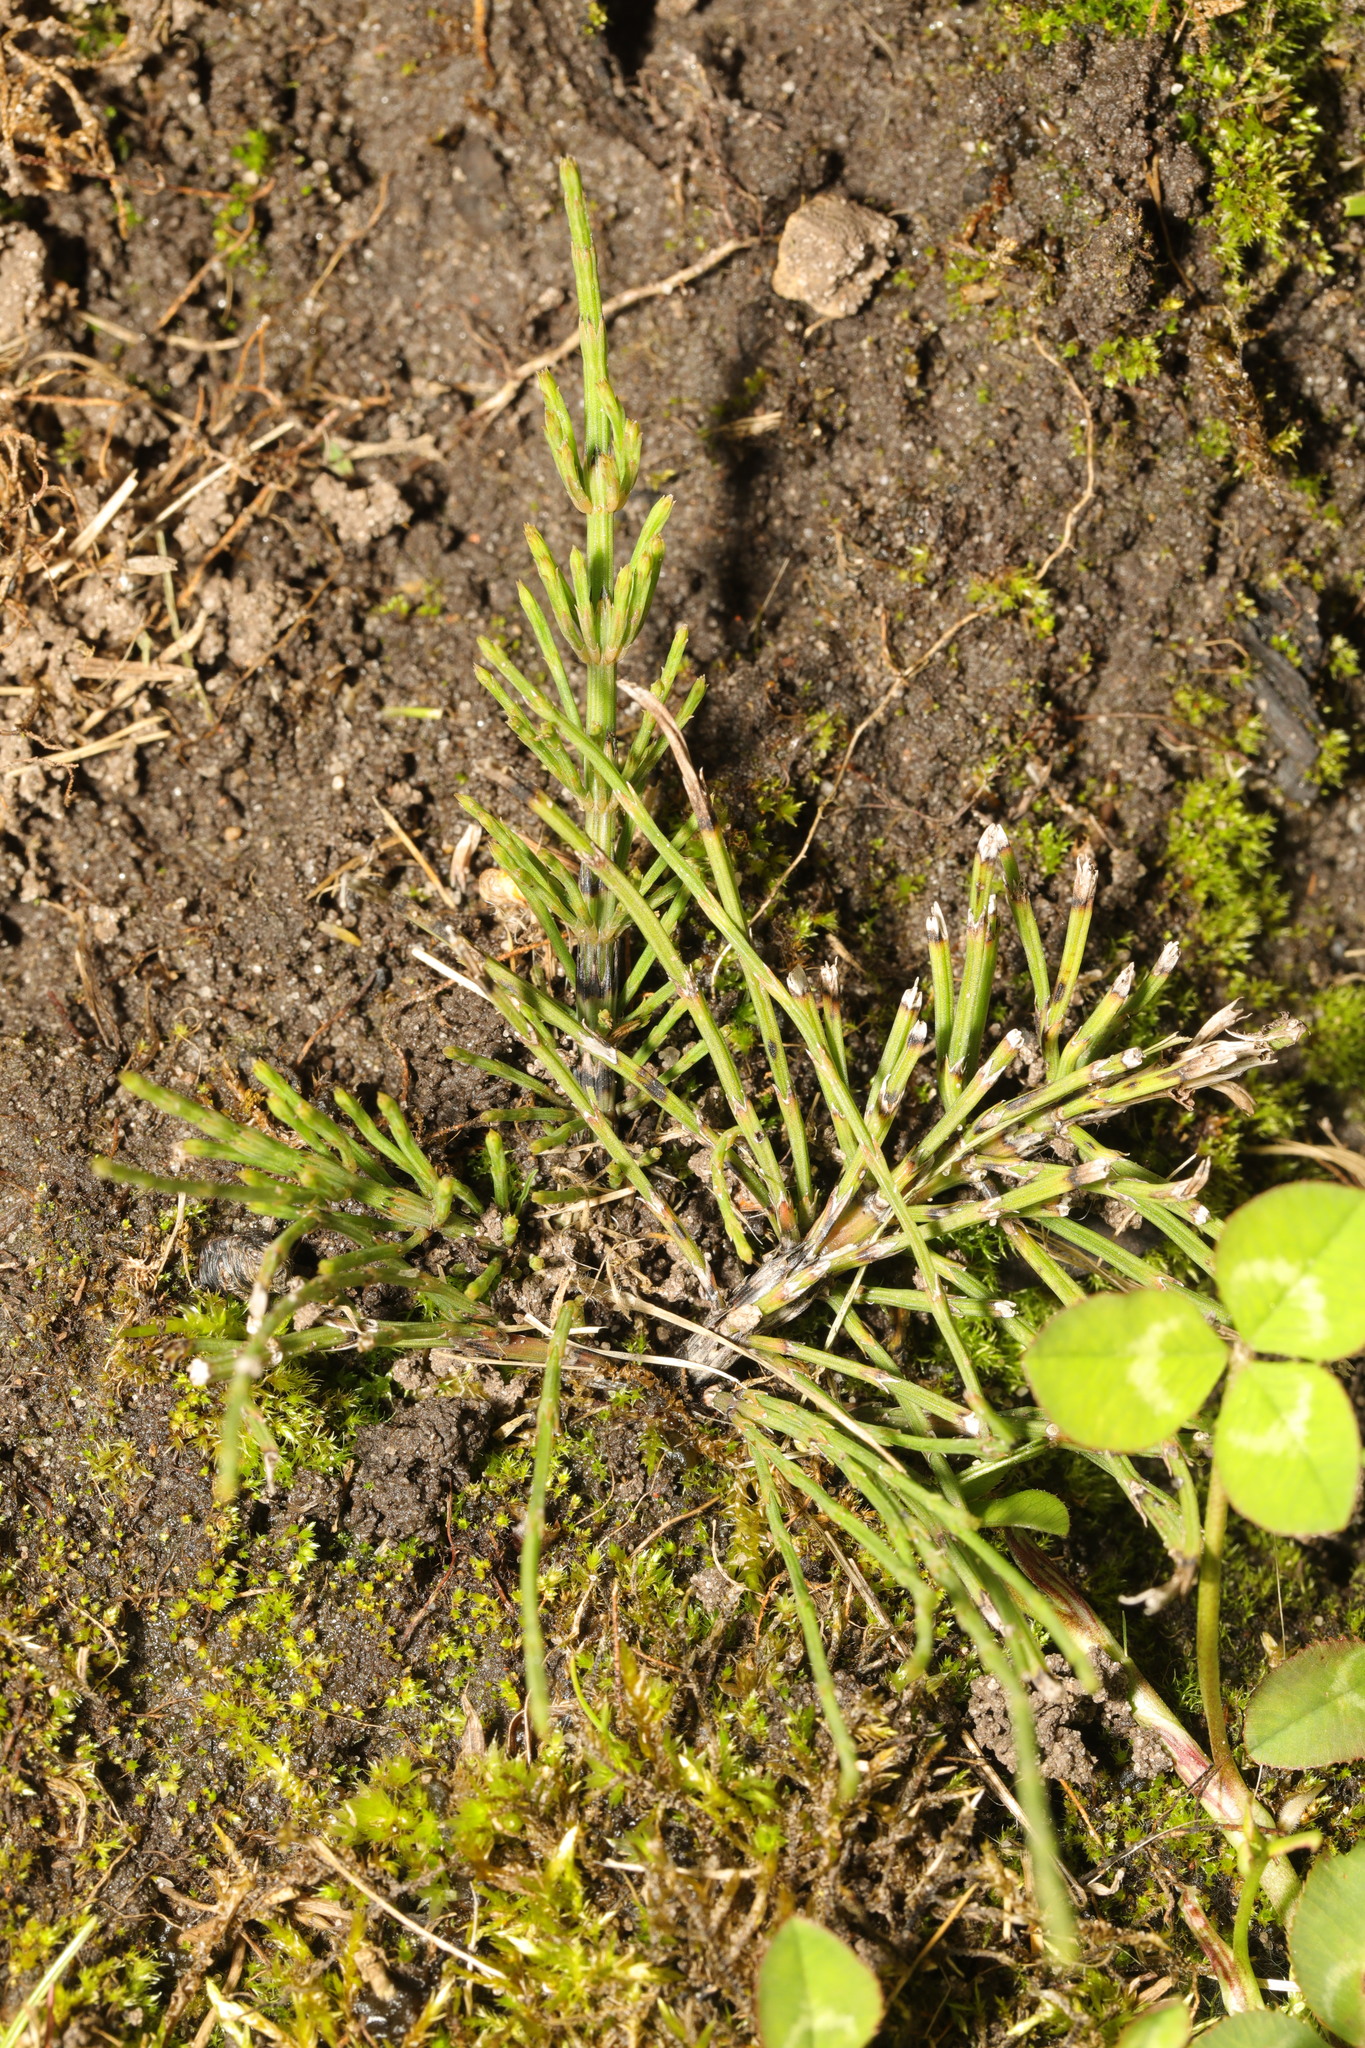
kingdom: Plantae
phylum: Tracheophyta
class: Polypodiopsida
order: Equisetales
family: Equisetaceae
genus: Equisetum
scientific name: Equisetum arvense
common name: Field horsetail
